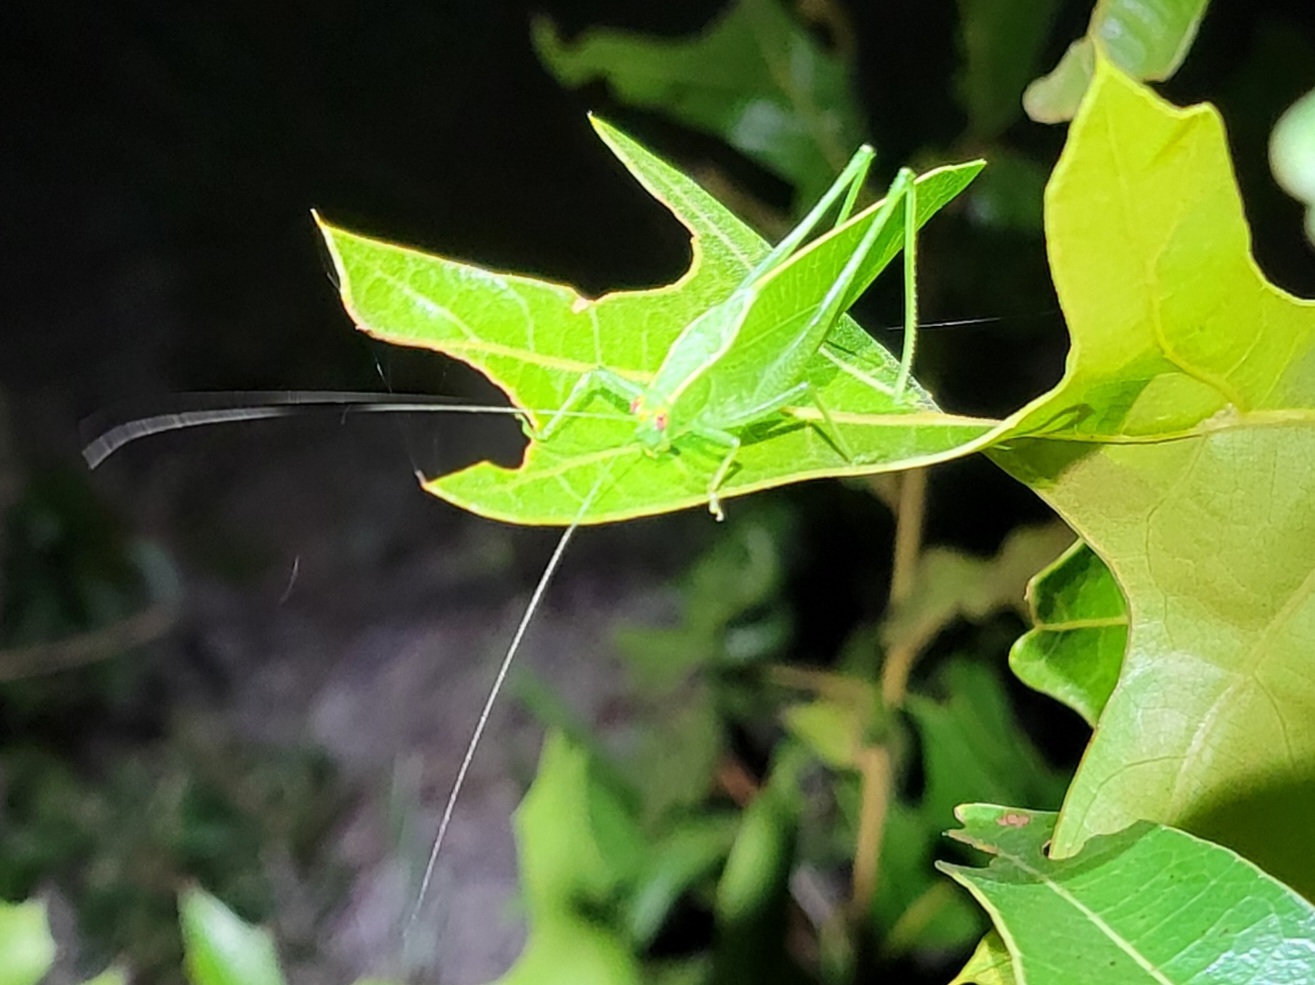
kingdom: Animalia
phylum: Arthropoda
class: Insecta
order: Orthoptera
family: Tettigoniidae
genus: Montezumina
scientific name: Montezumina modesta
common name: Modest katydid
